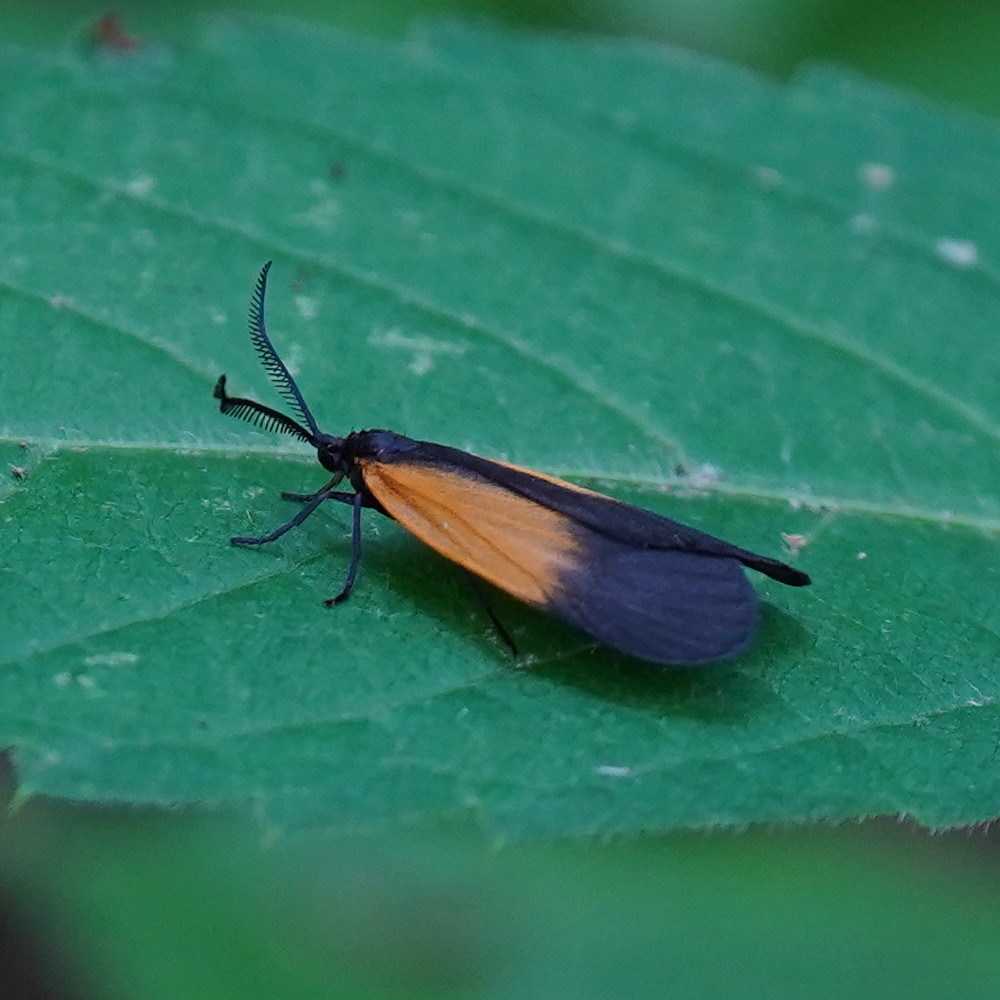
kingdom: Animalia
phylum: Arthropoda
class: Insecta
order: Lepidoptera
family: Zygaenidae
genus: Malthaca
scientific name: Malthaca dimidiata
